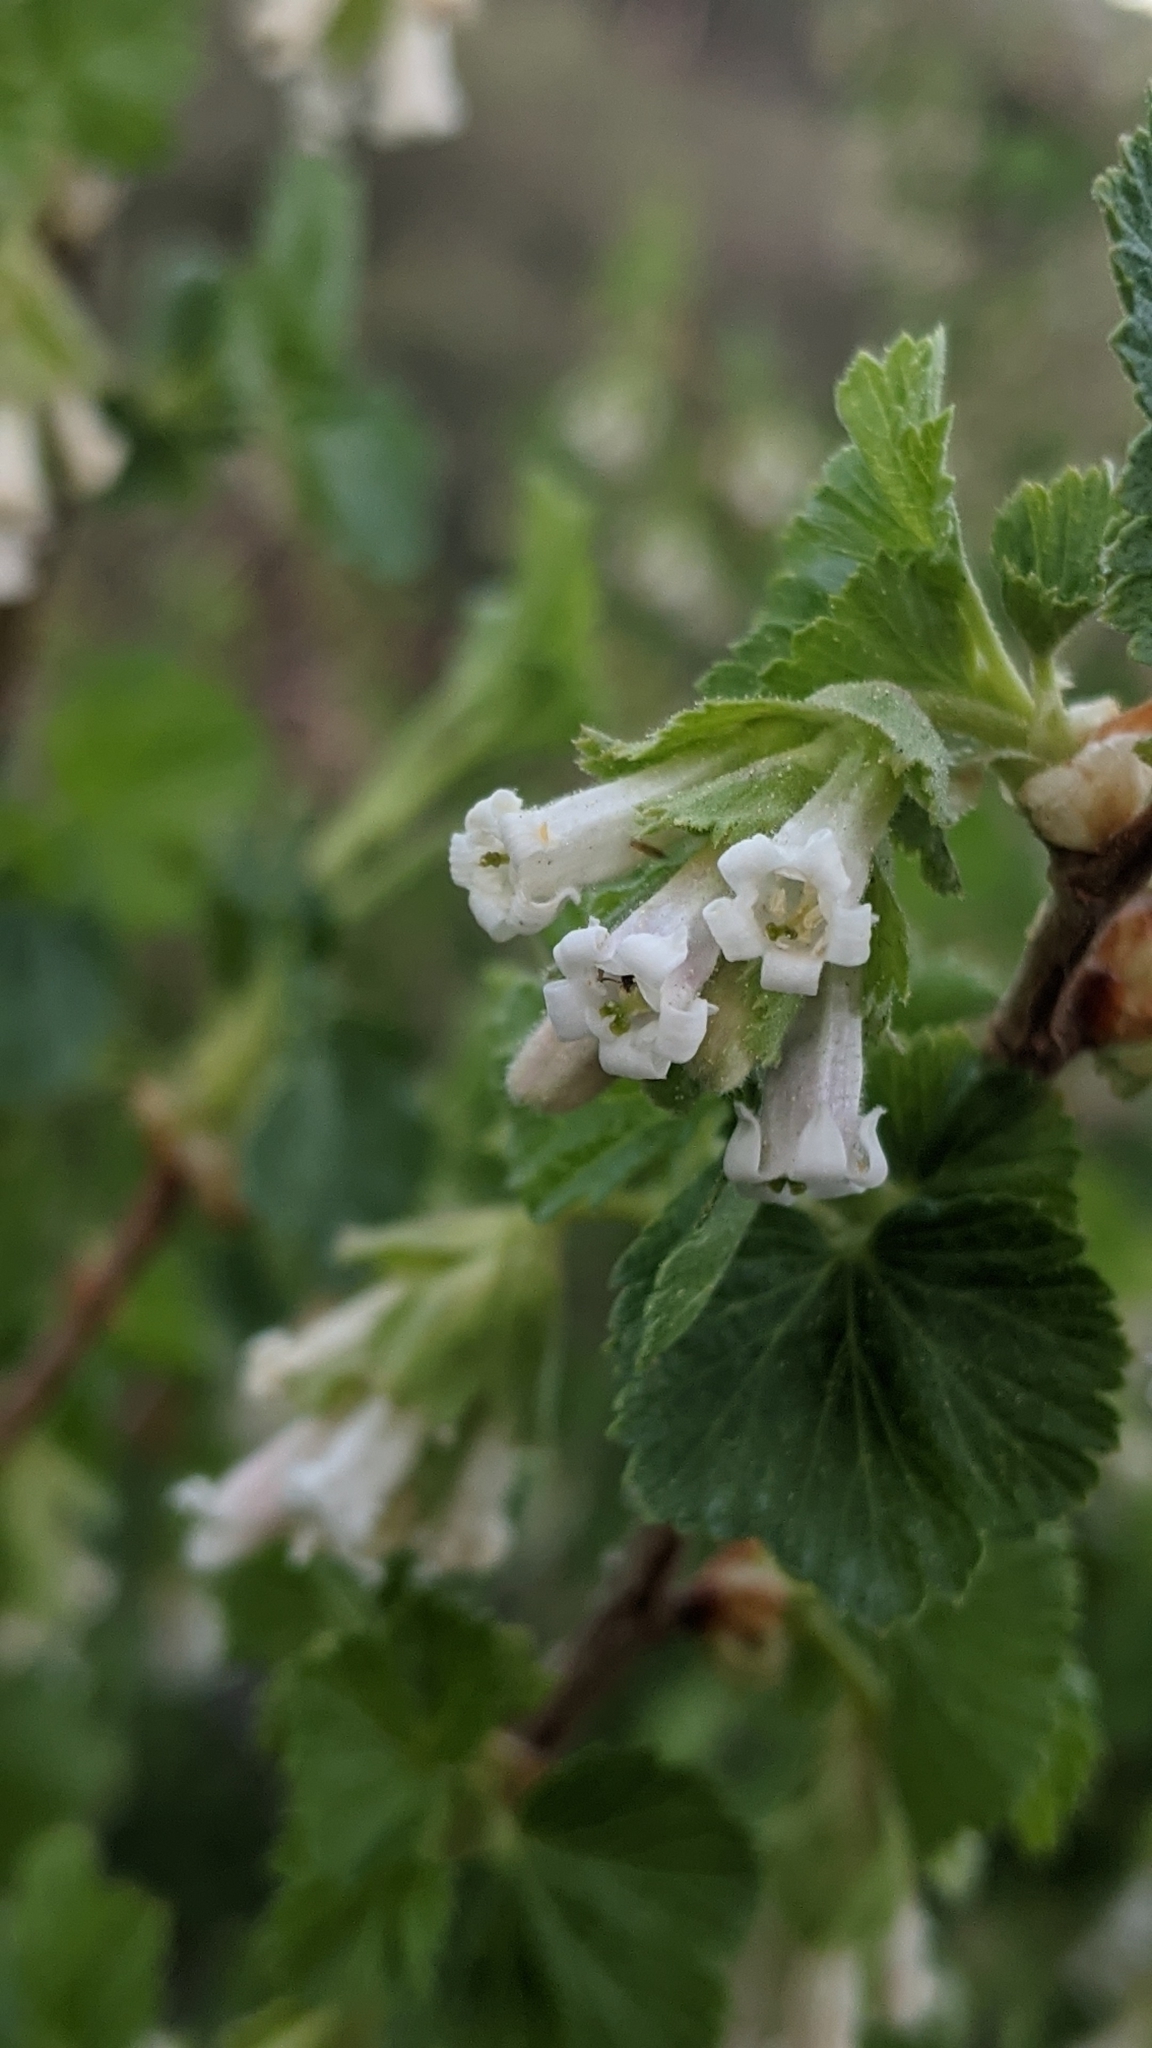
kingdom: Plantae
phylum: Tracheophyta
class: Magnoliopsida
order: Saxifragales
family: Grossulariaceae
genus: Ribes
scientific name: Ribes cereum
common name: Wax currant
